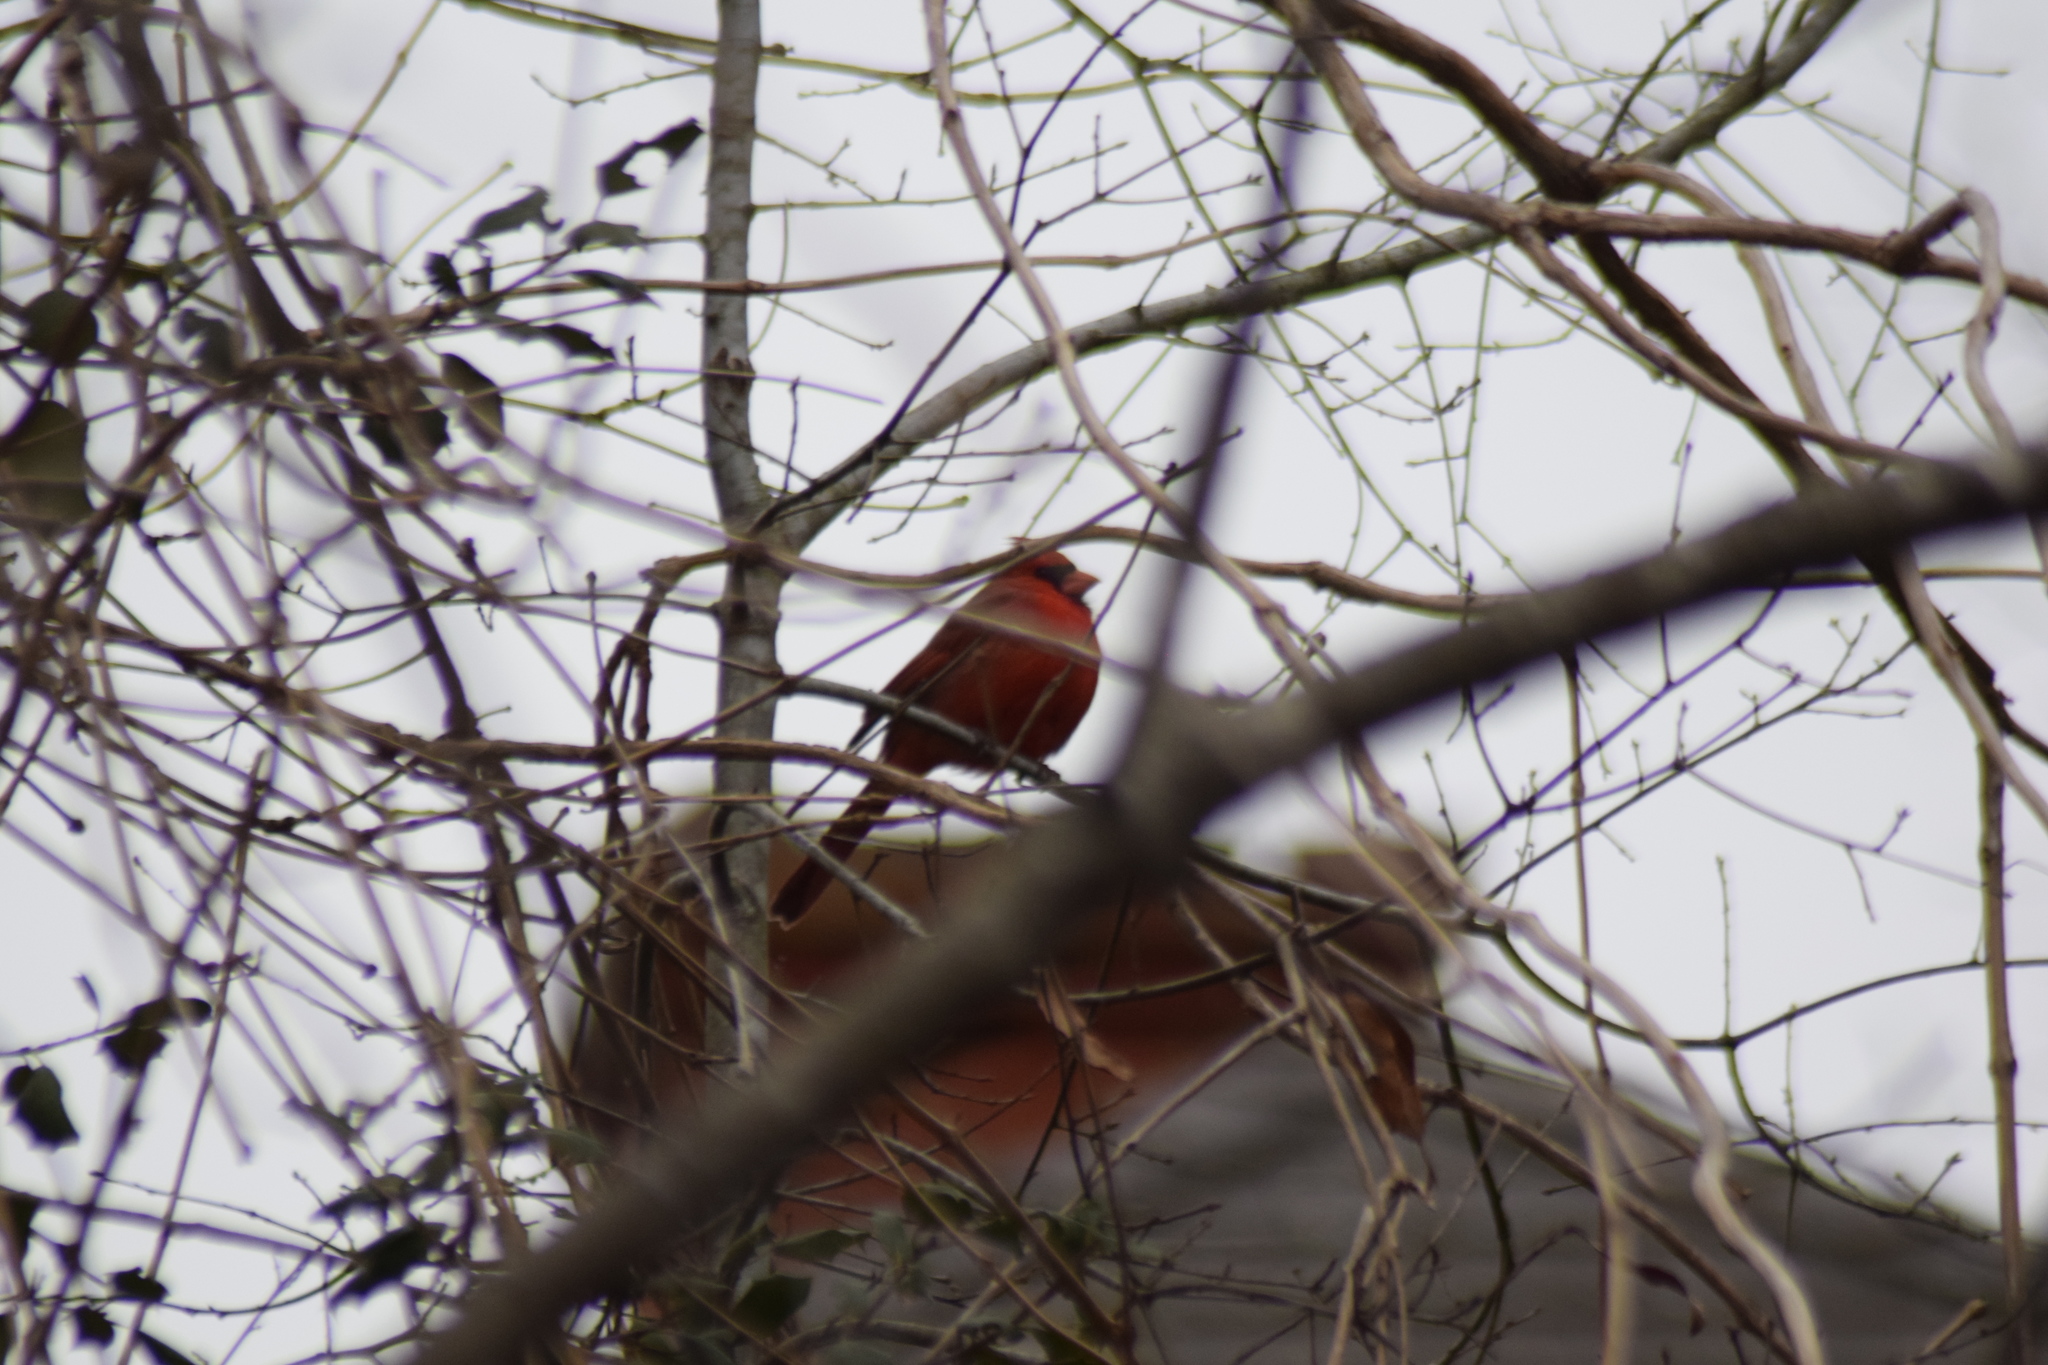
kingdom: Animalia
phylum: Chordata
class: Aves
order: Passeriformes
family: Cardinalidae
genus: Cardinalis
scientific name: Cardinalis cardinalis
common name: Northern cardinal
